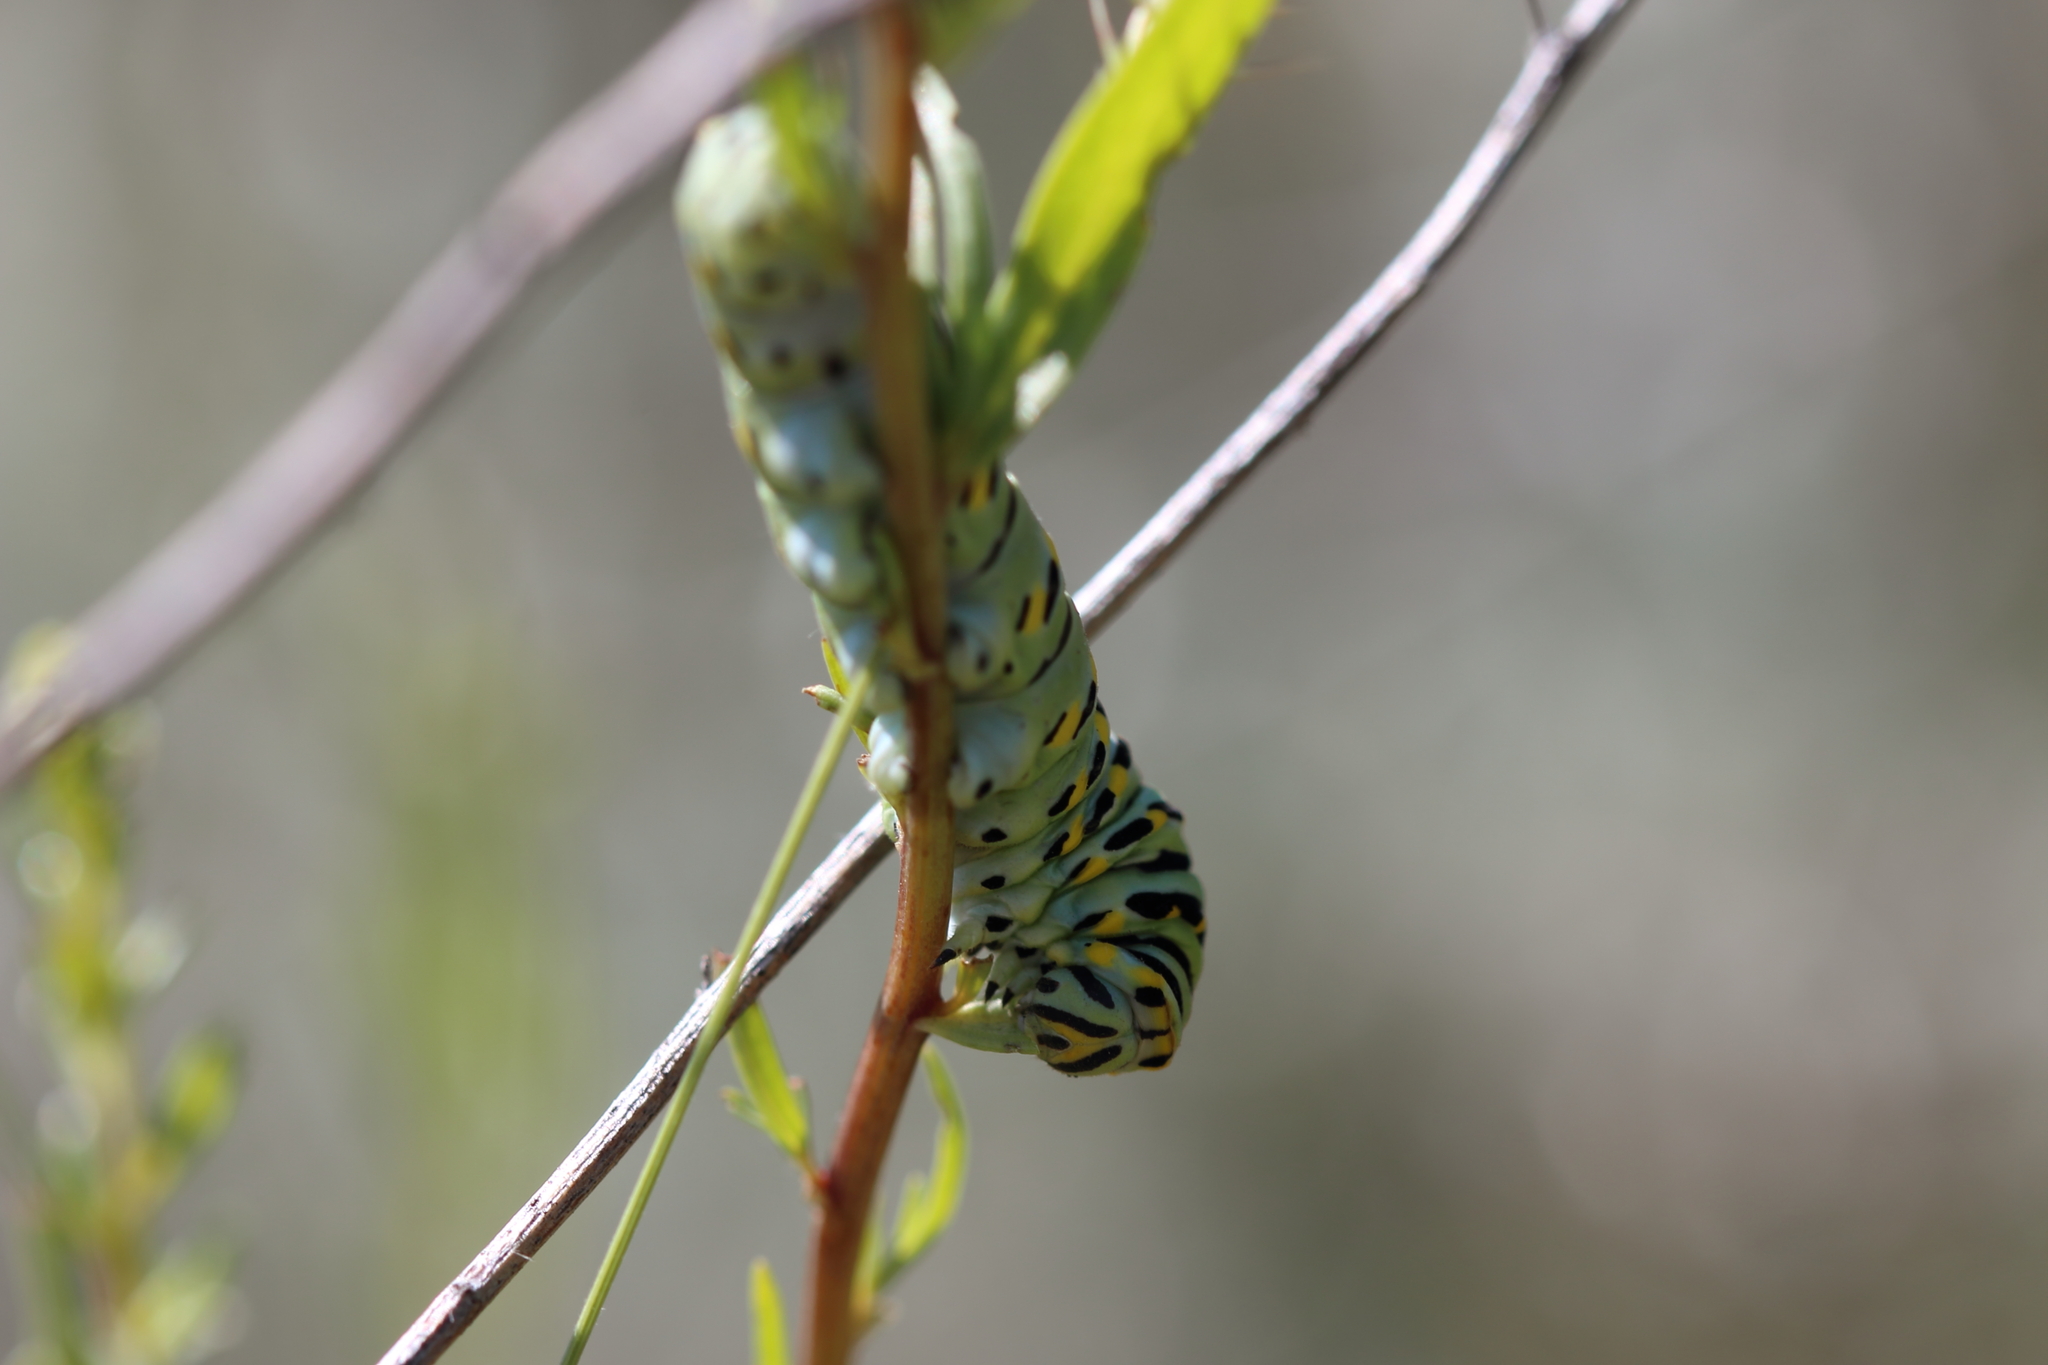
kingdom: Animalia
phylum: Arthropoda
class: Insecta
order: Lepidoptera
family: Papilionidae
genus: Papilio
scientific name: Papilio
